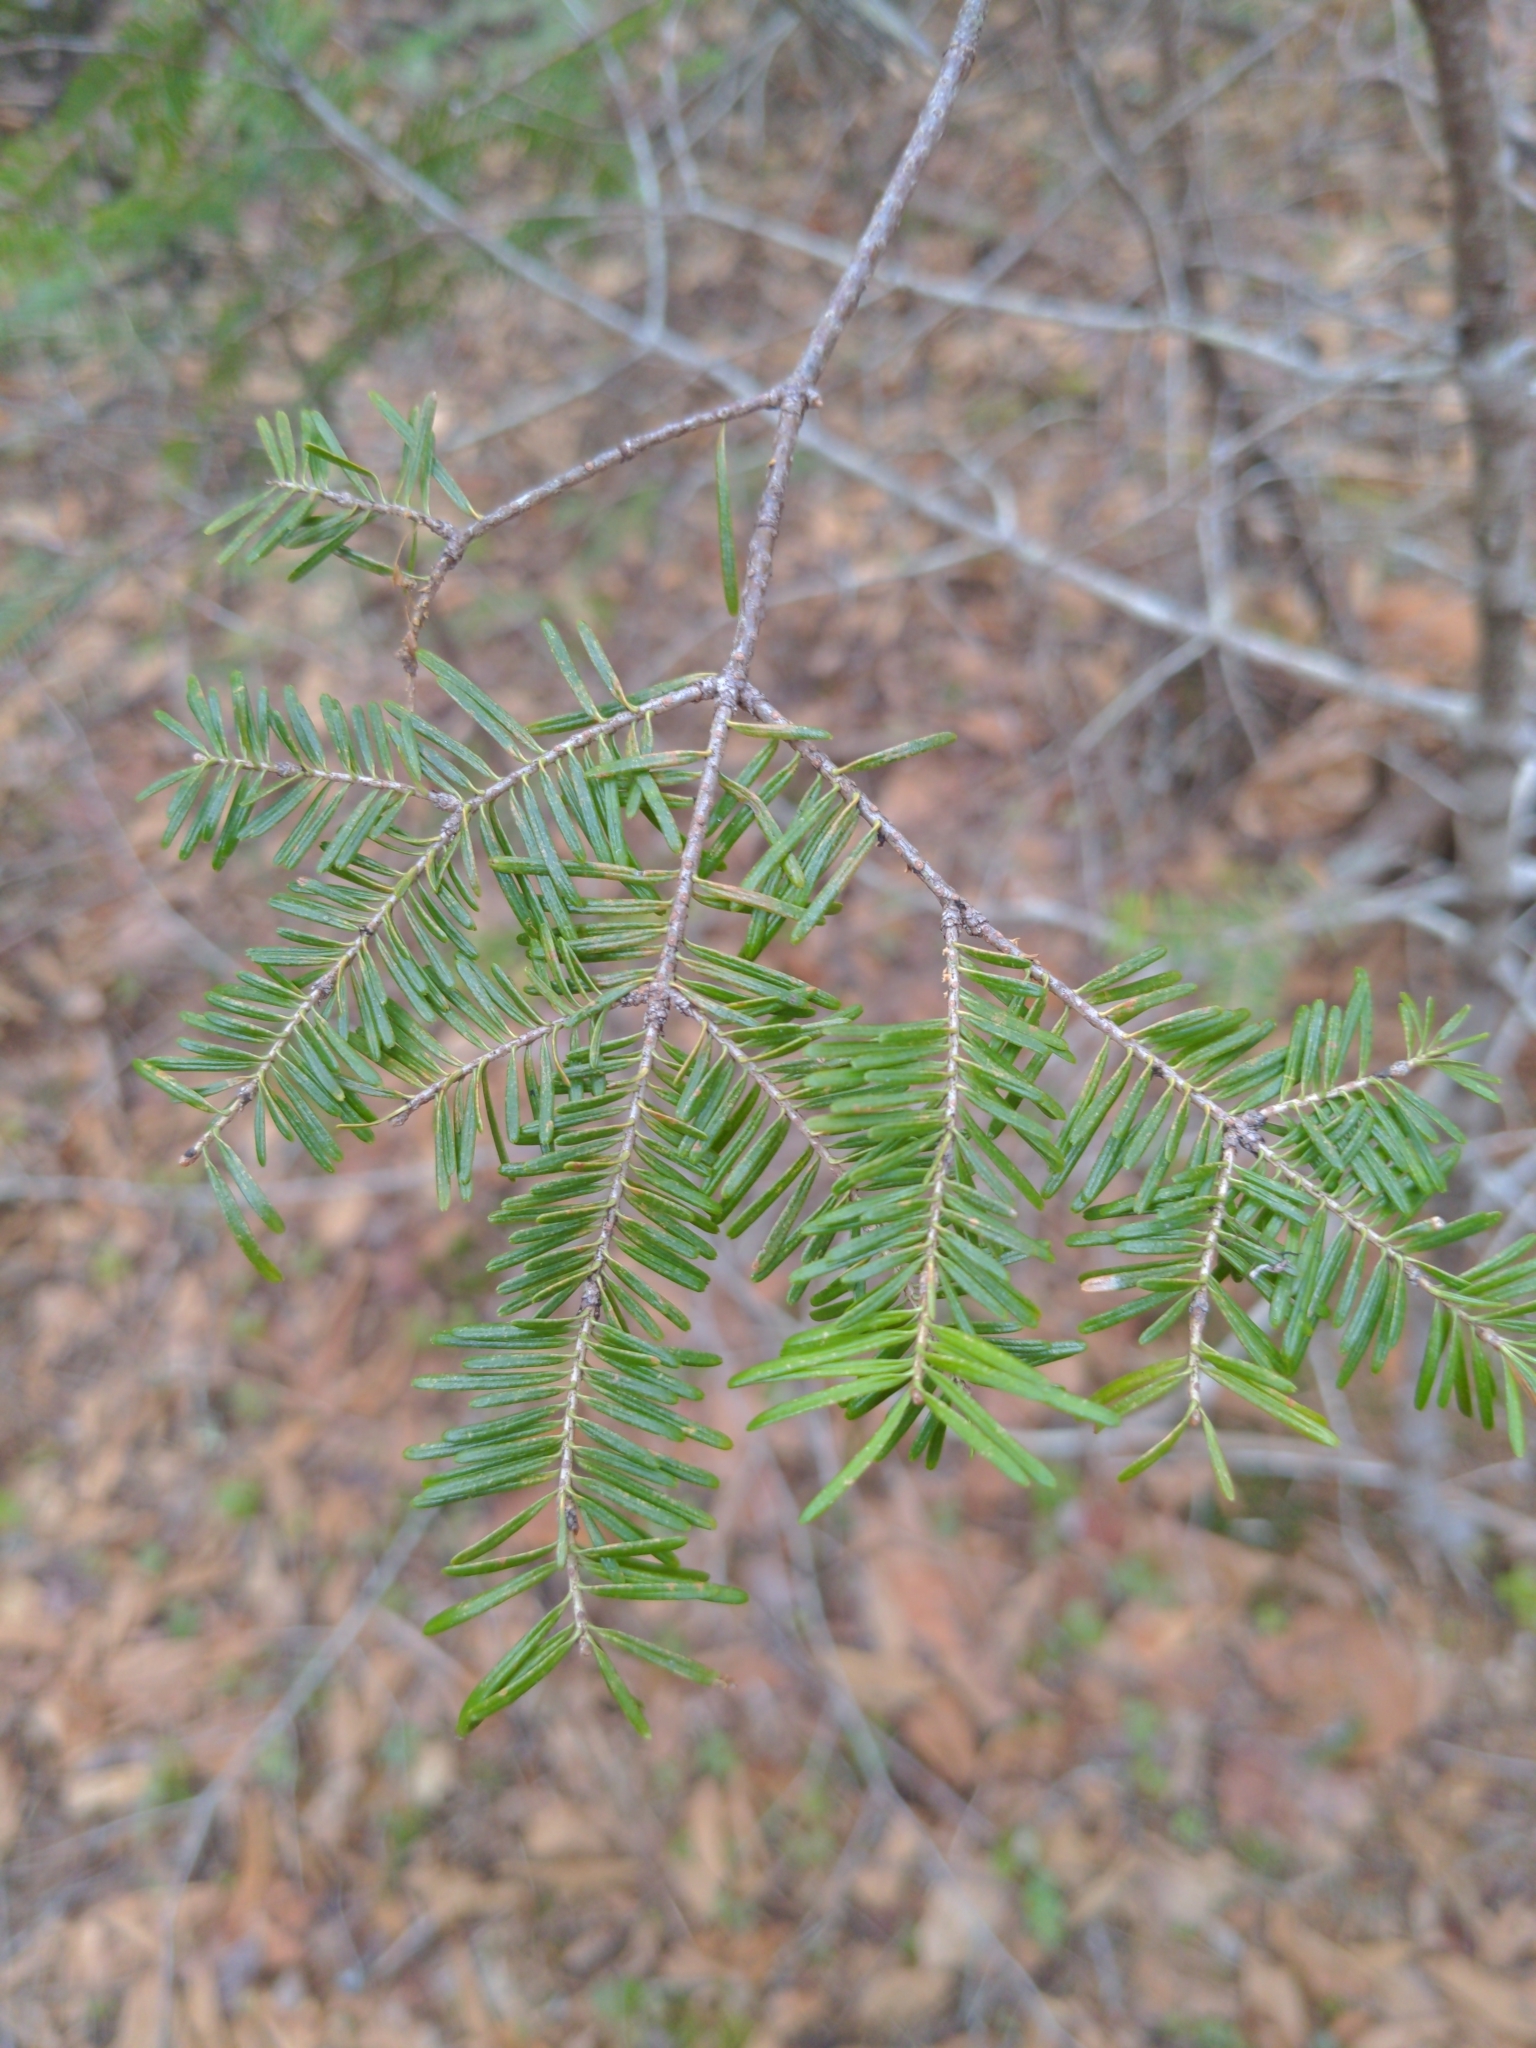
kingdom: Plantae
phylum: Tracheophyta
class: Pinopsida
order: Pinales
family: Pinaceae
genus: Abies
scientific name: Abies balsamea
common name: Balsam fir
